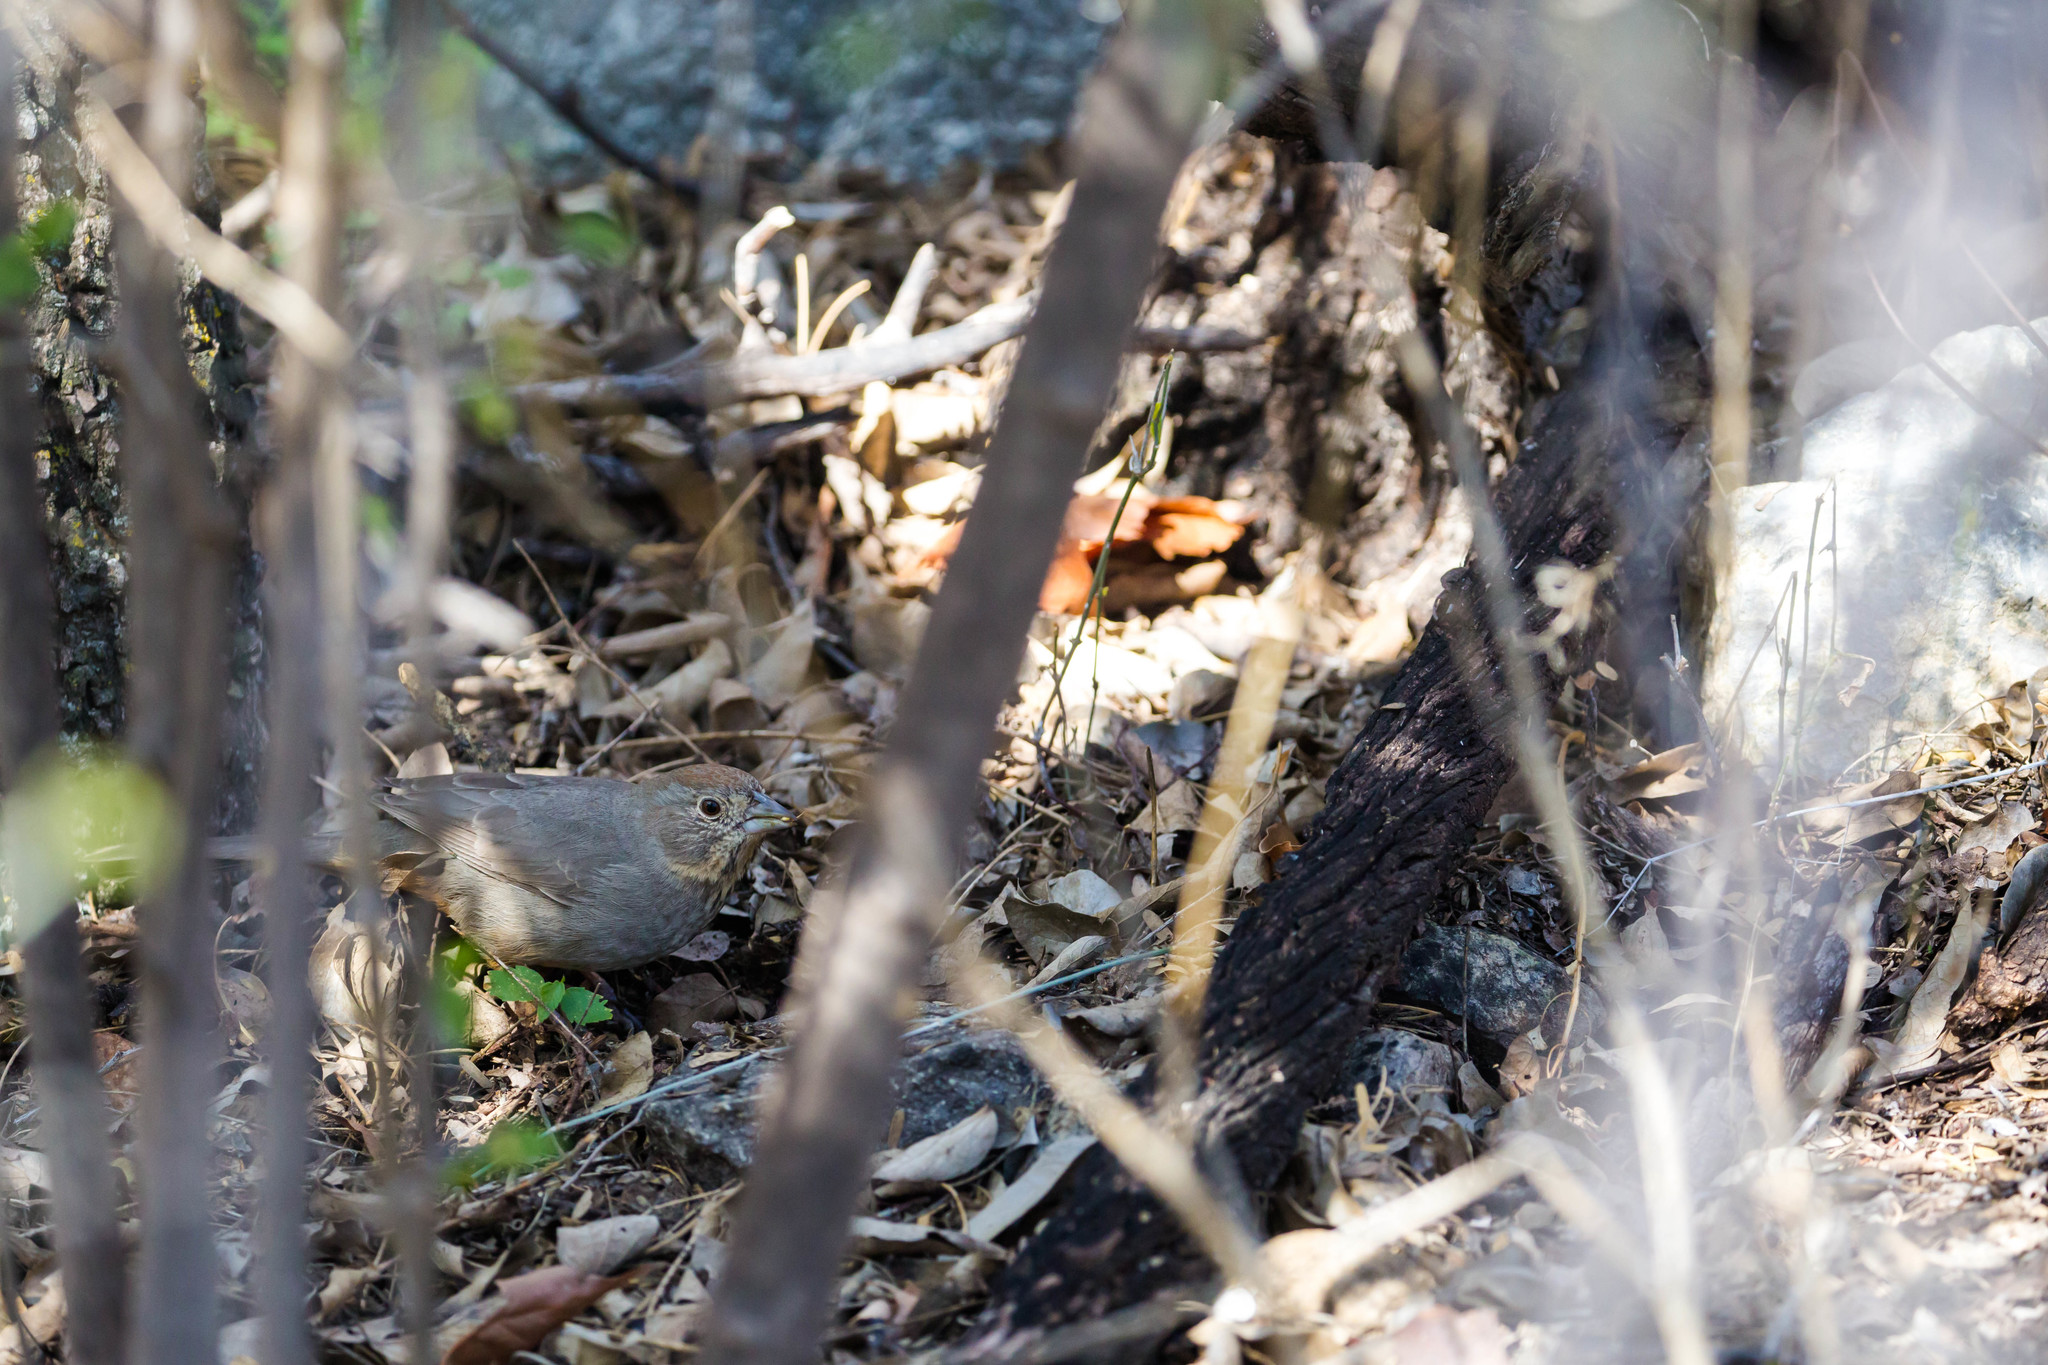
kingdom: Animalia
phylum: Chordata
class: Aves
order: Passeriformes
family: Passerellidae
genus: Melozone
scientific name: Melozone fusca
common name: Canyon towhee
